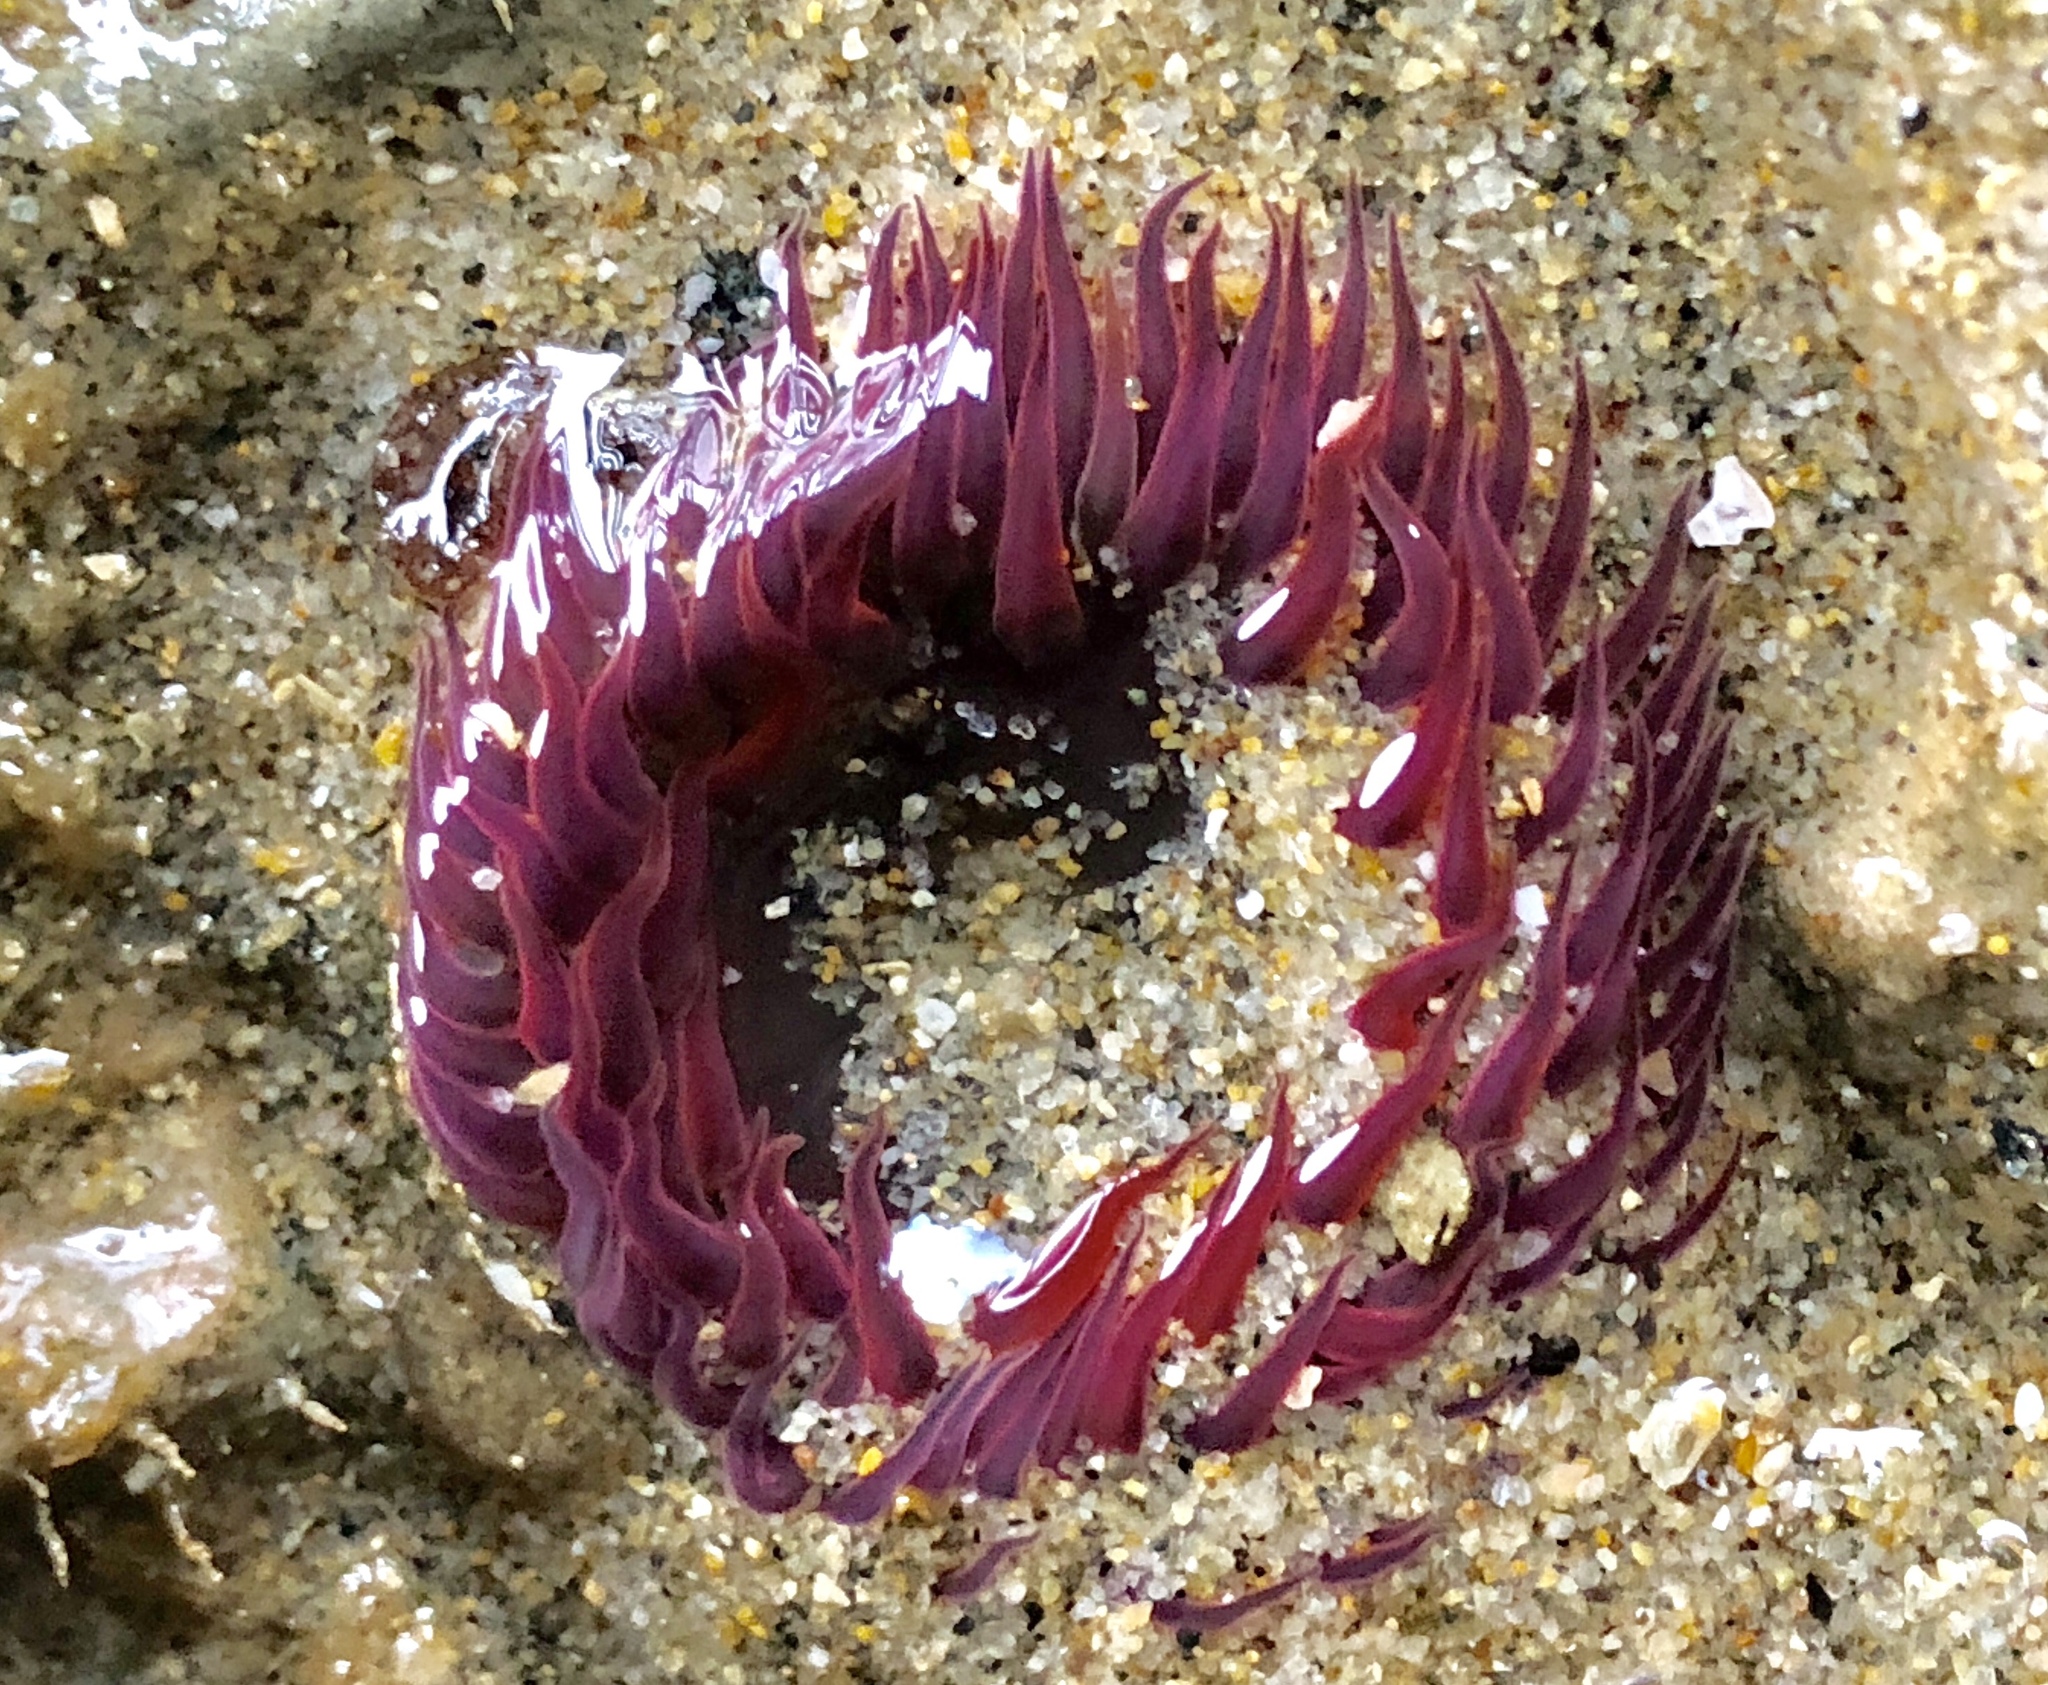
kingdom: Animalia
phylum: Cnidaria
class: Anthozoa
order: Actiniaria
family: Actiniidae
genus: Anthopleura
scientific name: Anthopleura artemisia
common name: Buried sea anemone
